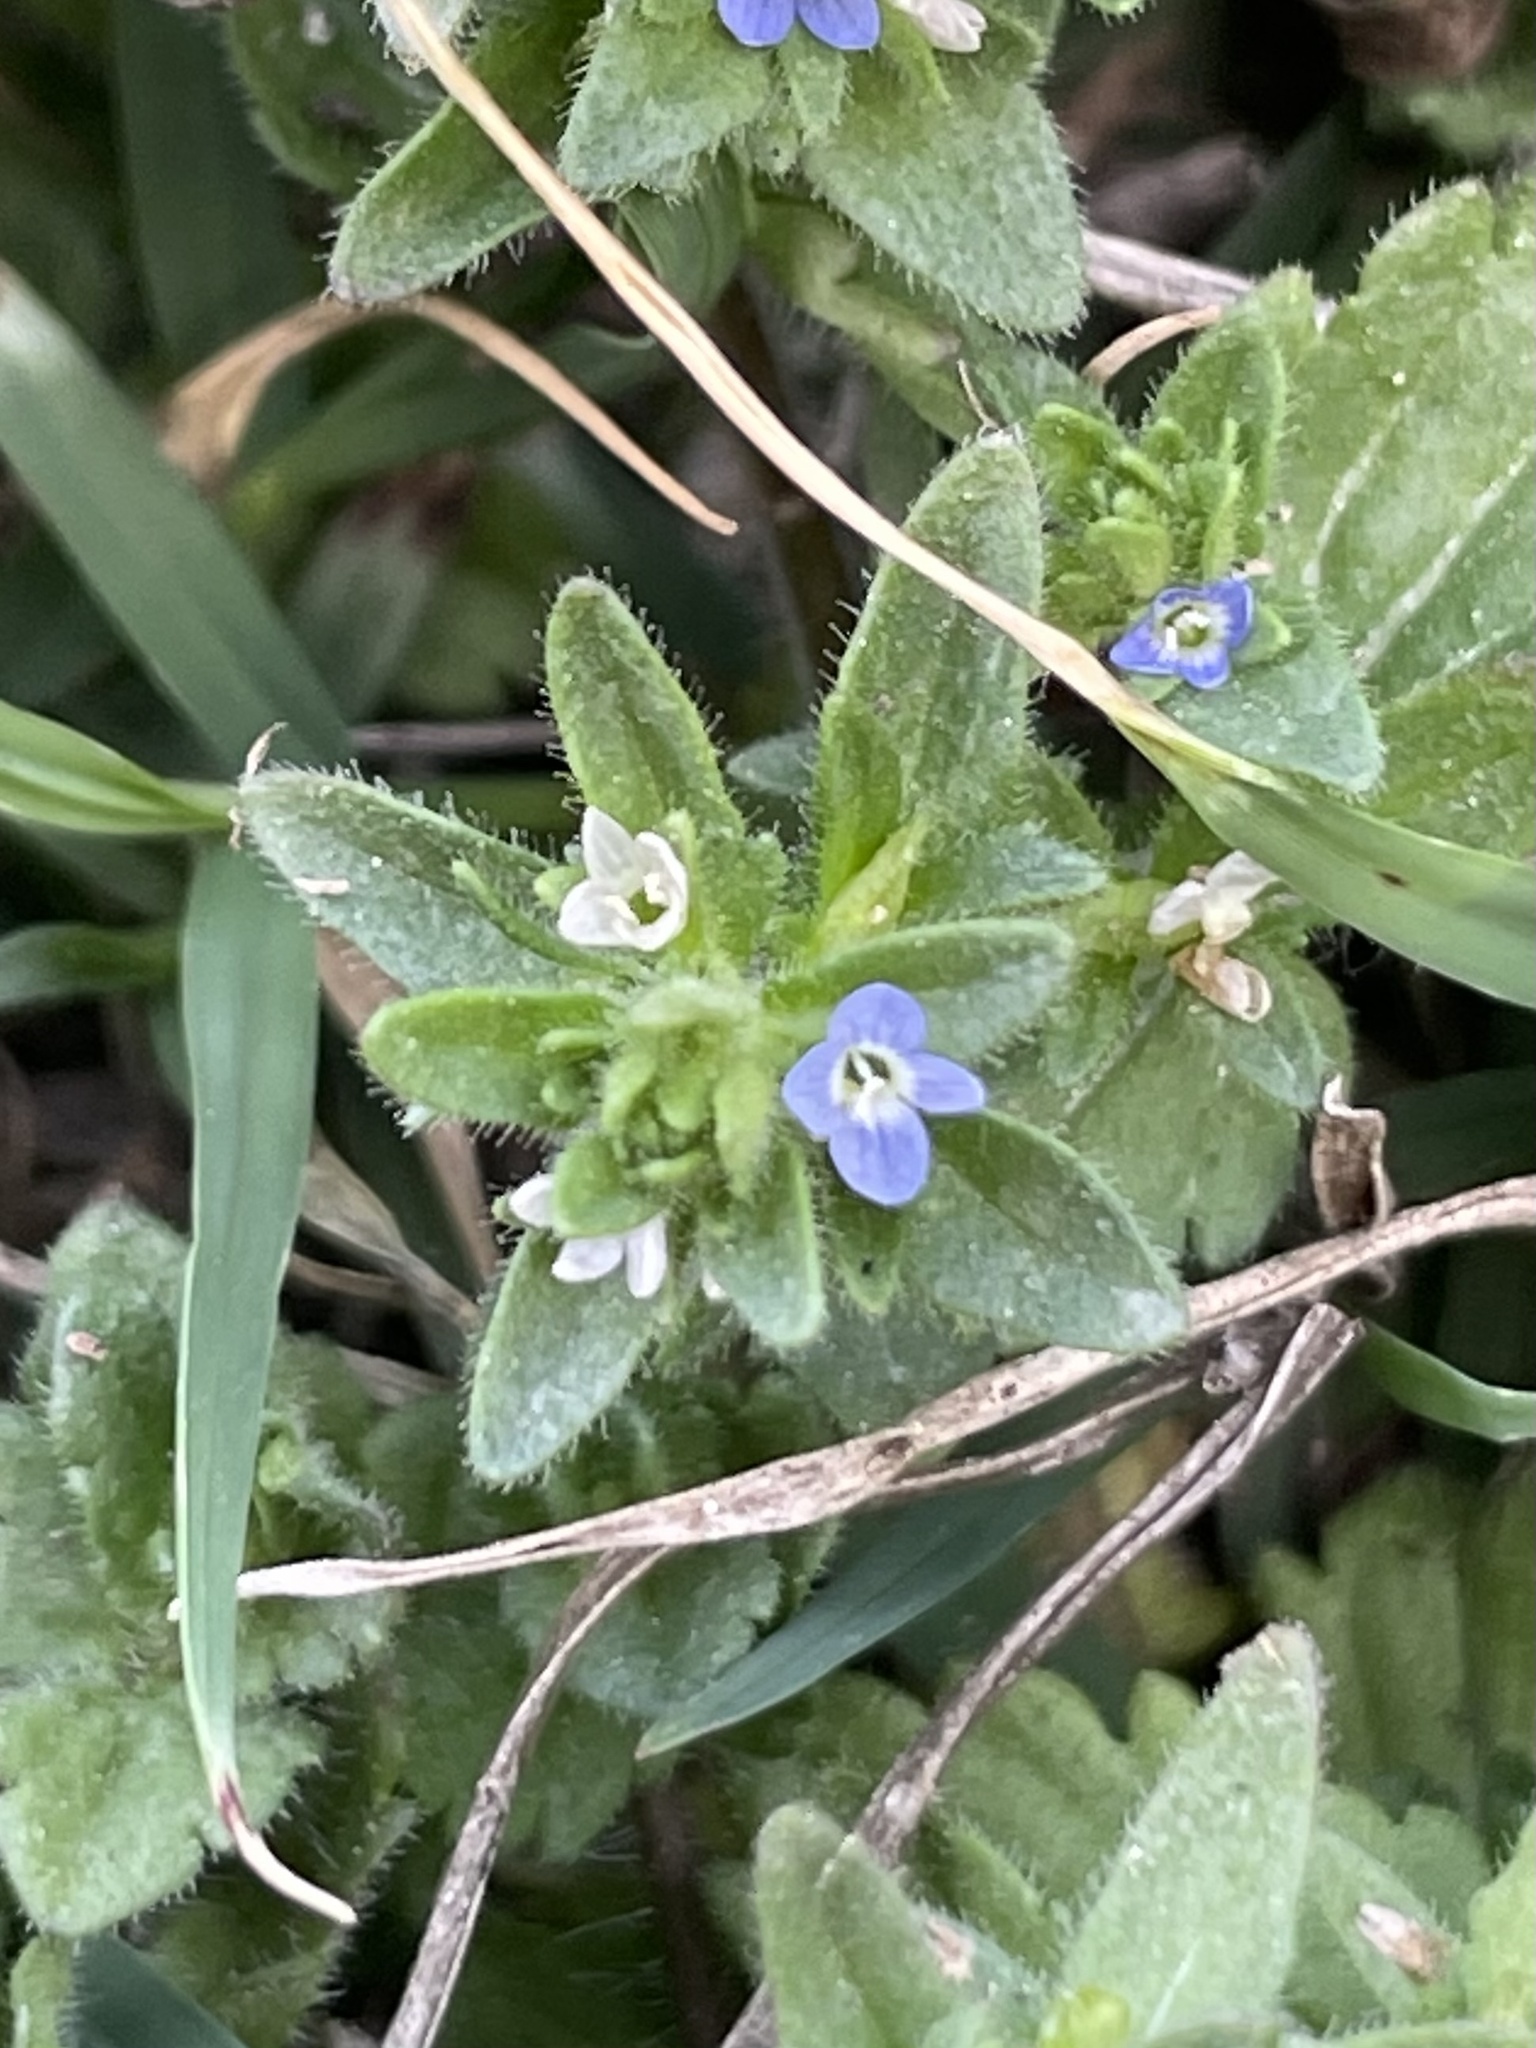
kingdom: Plantae
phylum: Tracheophyta
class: Magnoliopsida
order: Lamiales
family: Plantaginaceae
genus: Veronica
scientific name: Veronica arvensis
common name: Corn speedwell
